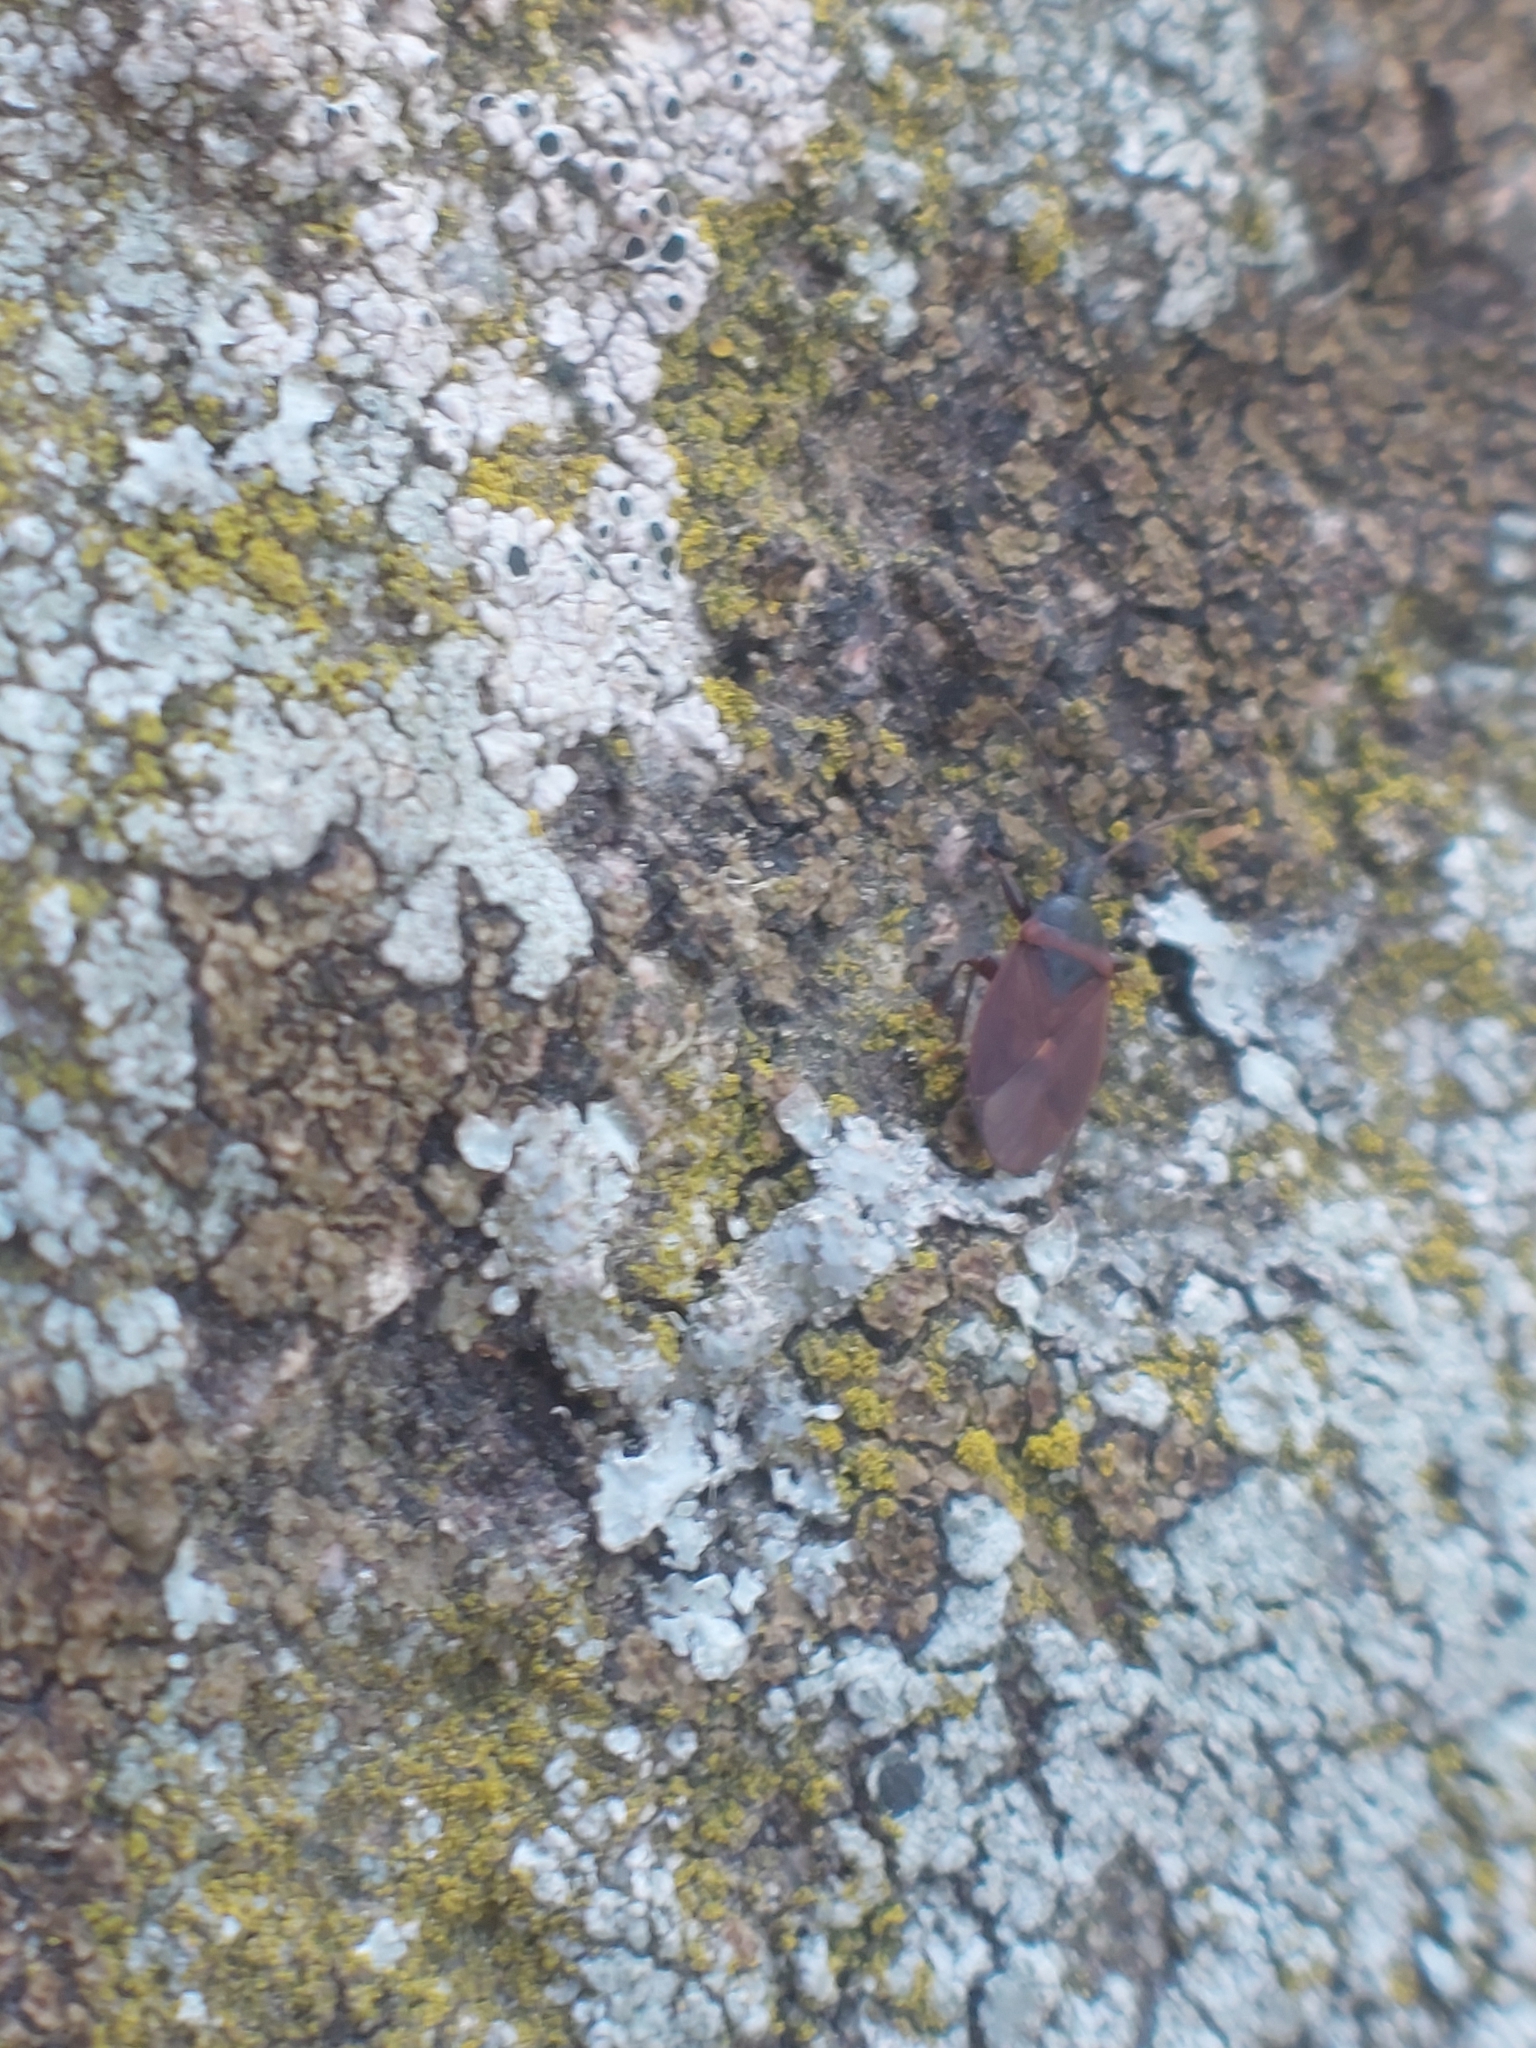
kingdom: Animalia
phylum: Arthropoda
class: Insecta
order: Hemiptera
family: Rhyparochromidae
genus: Gastrodes
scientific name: Gastrodes grossipes
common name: Pine cone bug
